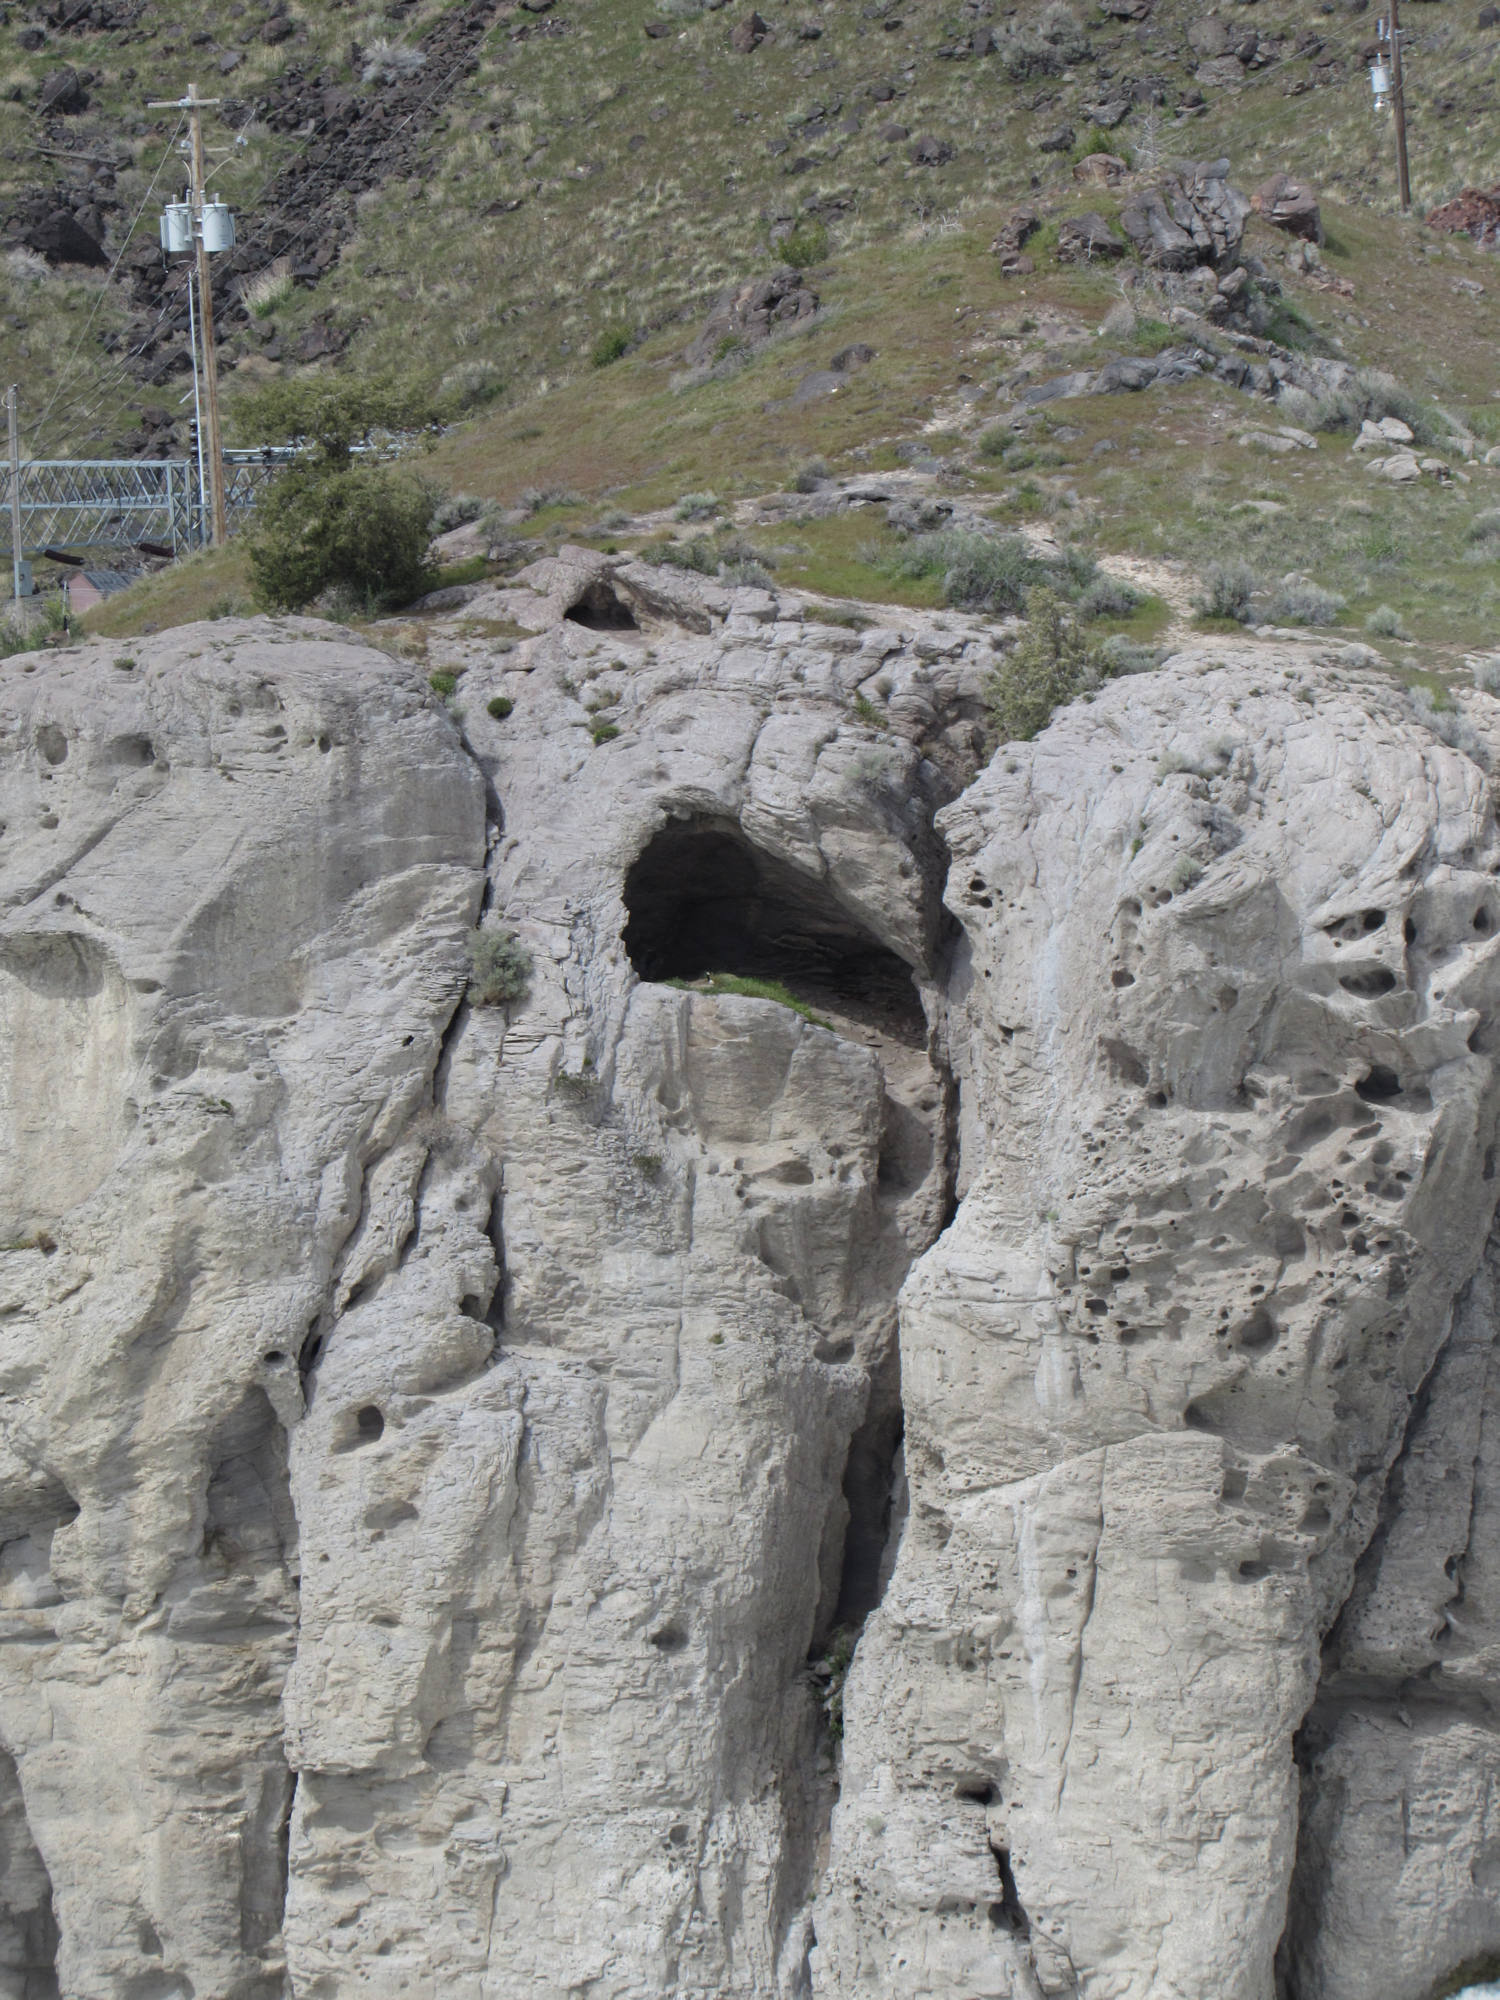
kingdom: Animalia
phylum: Chordata
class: Aves
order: Anseriformes
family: Anatidae
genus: Branta
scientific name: Branta canadensis
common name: Canada goose
